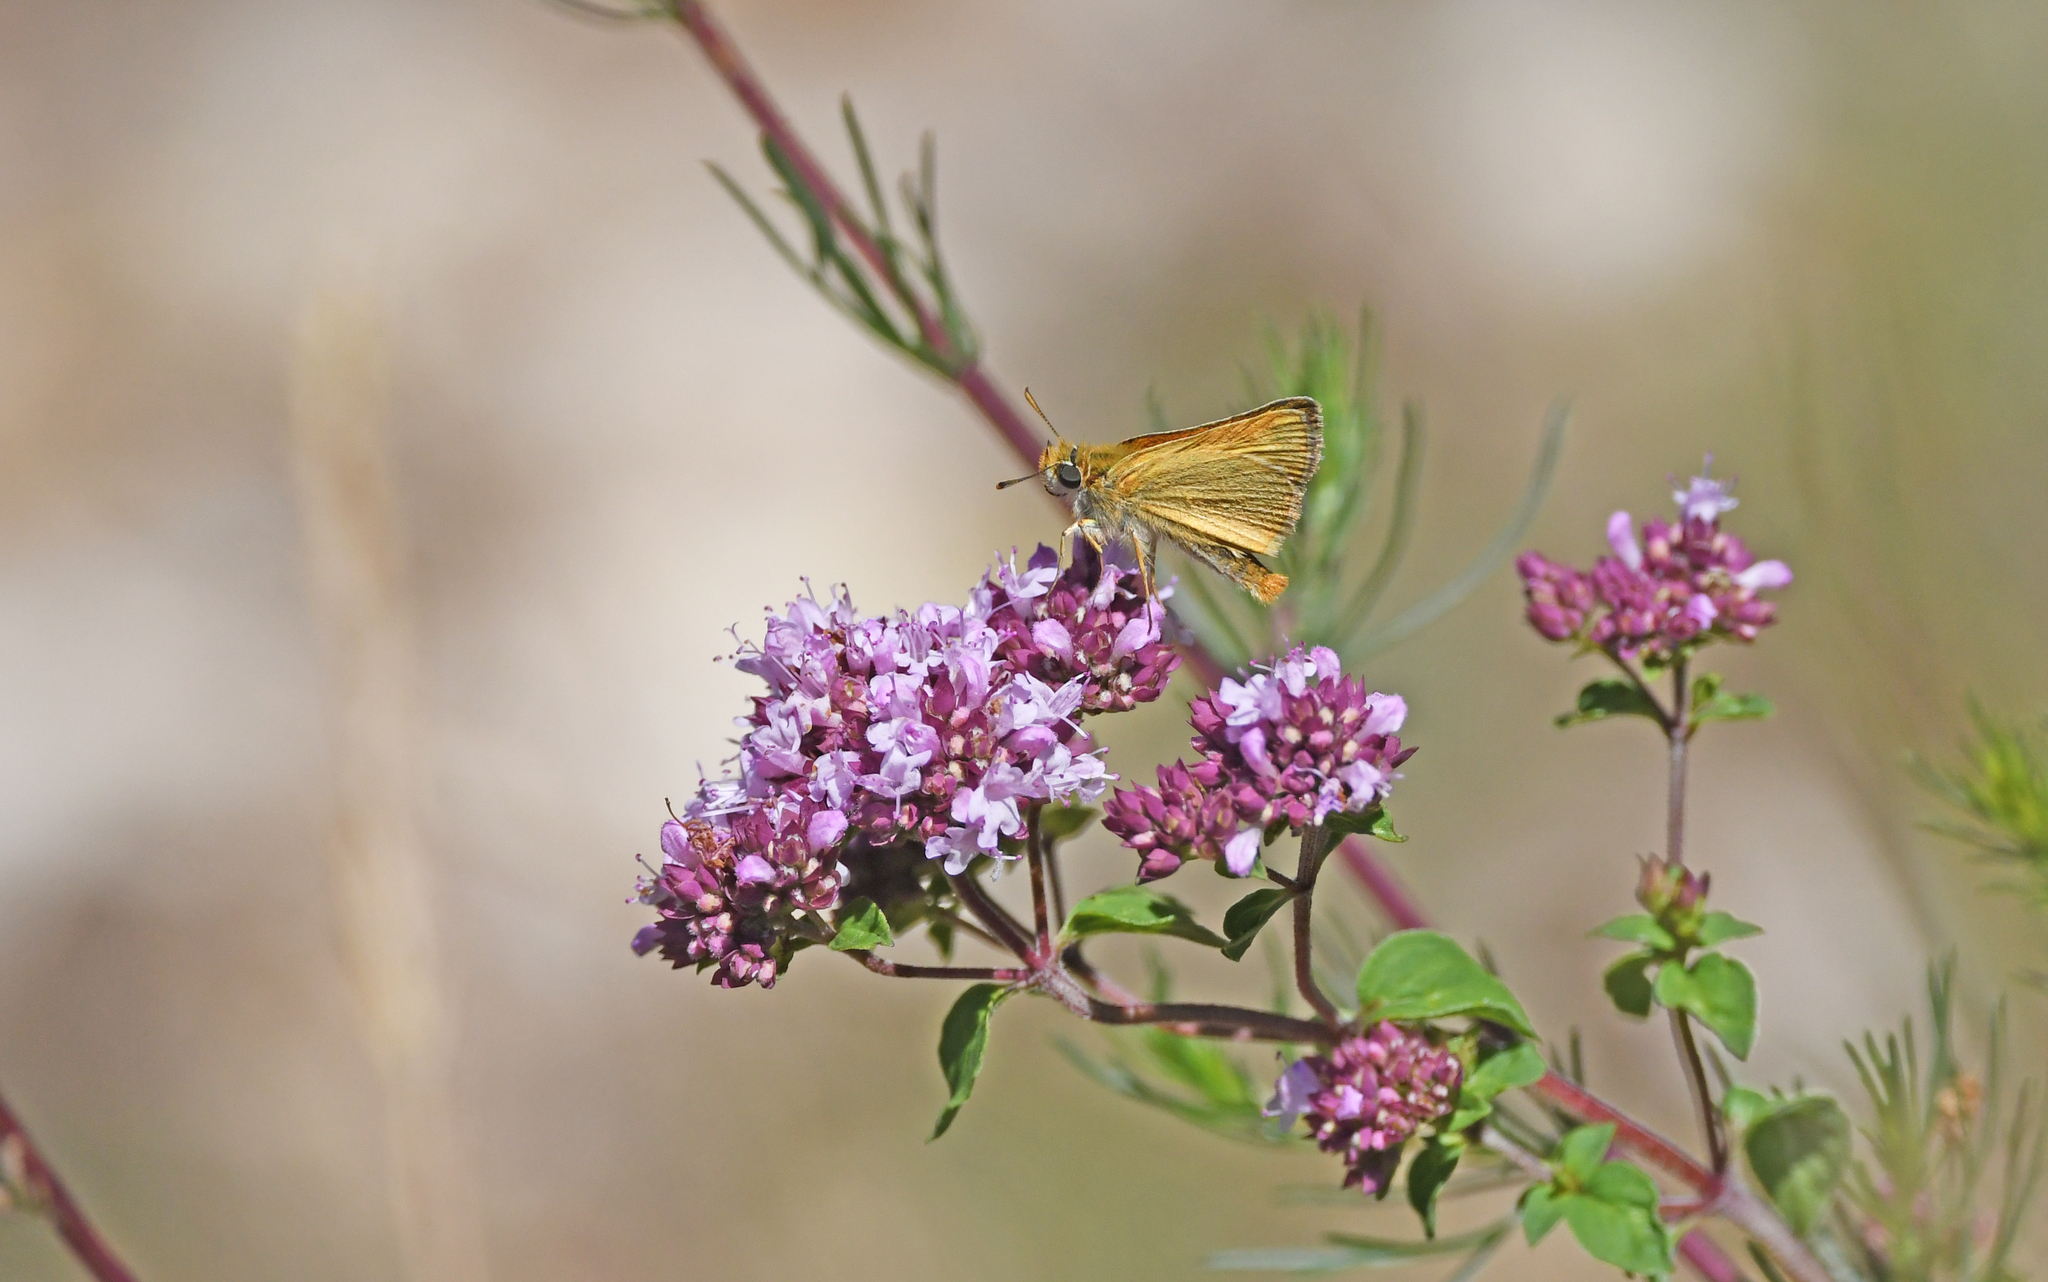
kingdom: Animalia
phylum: Arthropoda
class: Insecta
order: Lepidoptera
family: Hesperiidae
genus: Thymelicus
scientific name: Thymelicus sylvestris
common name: Small skipper
